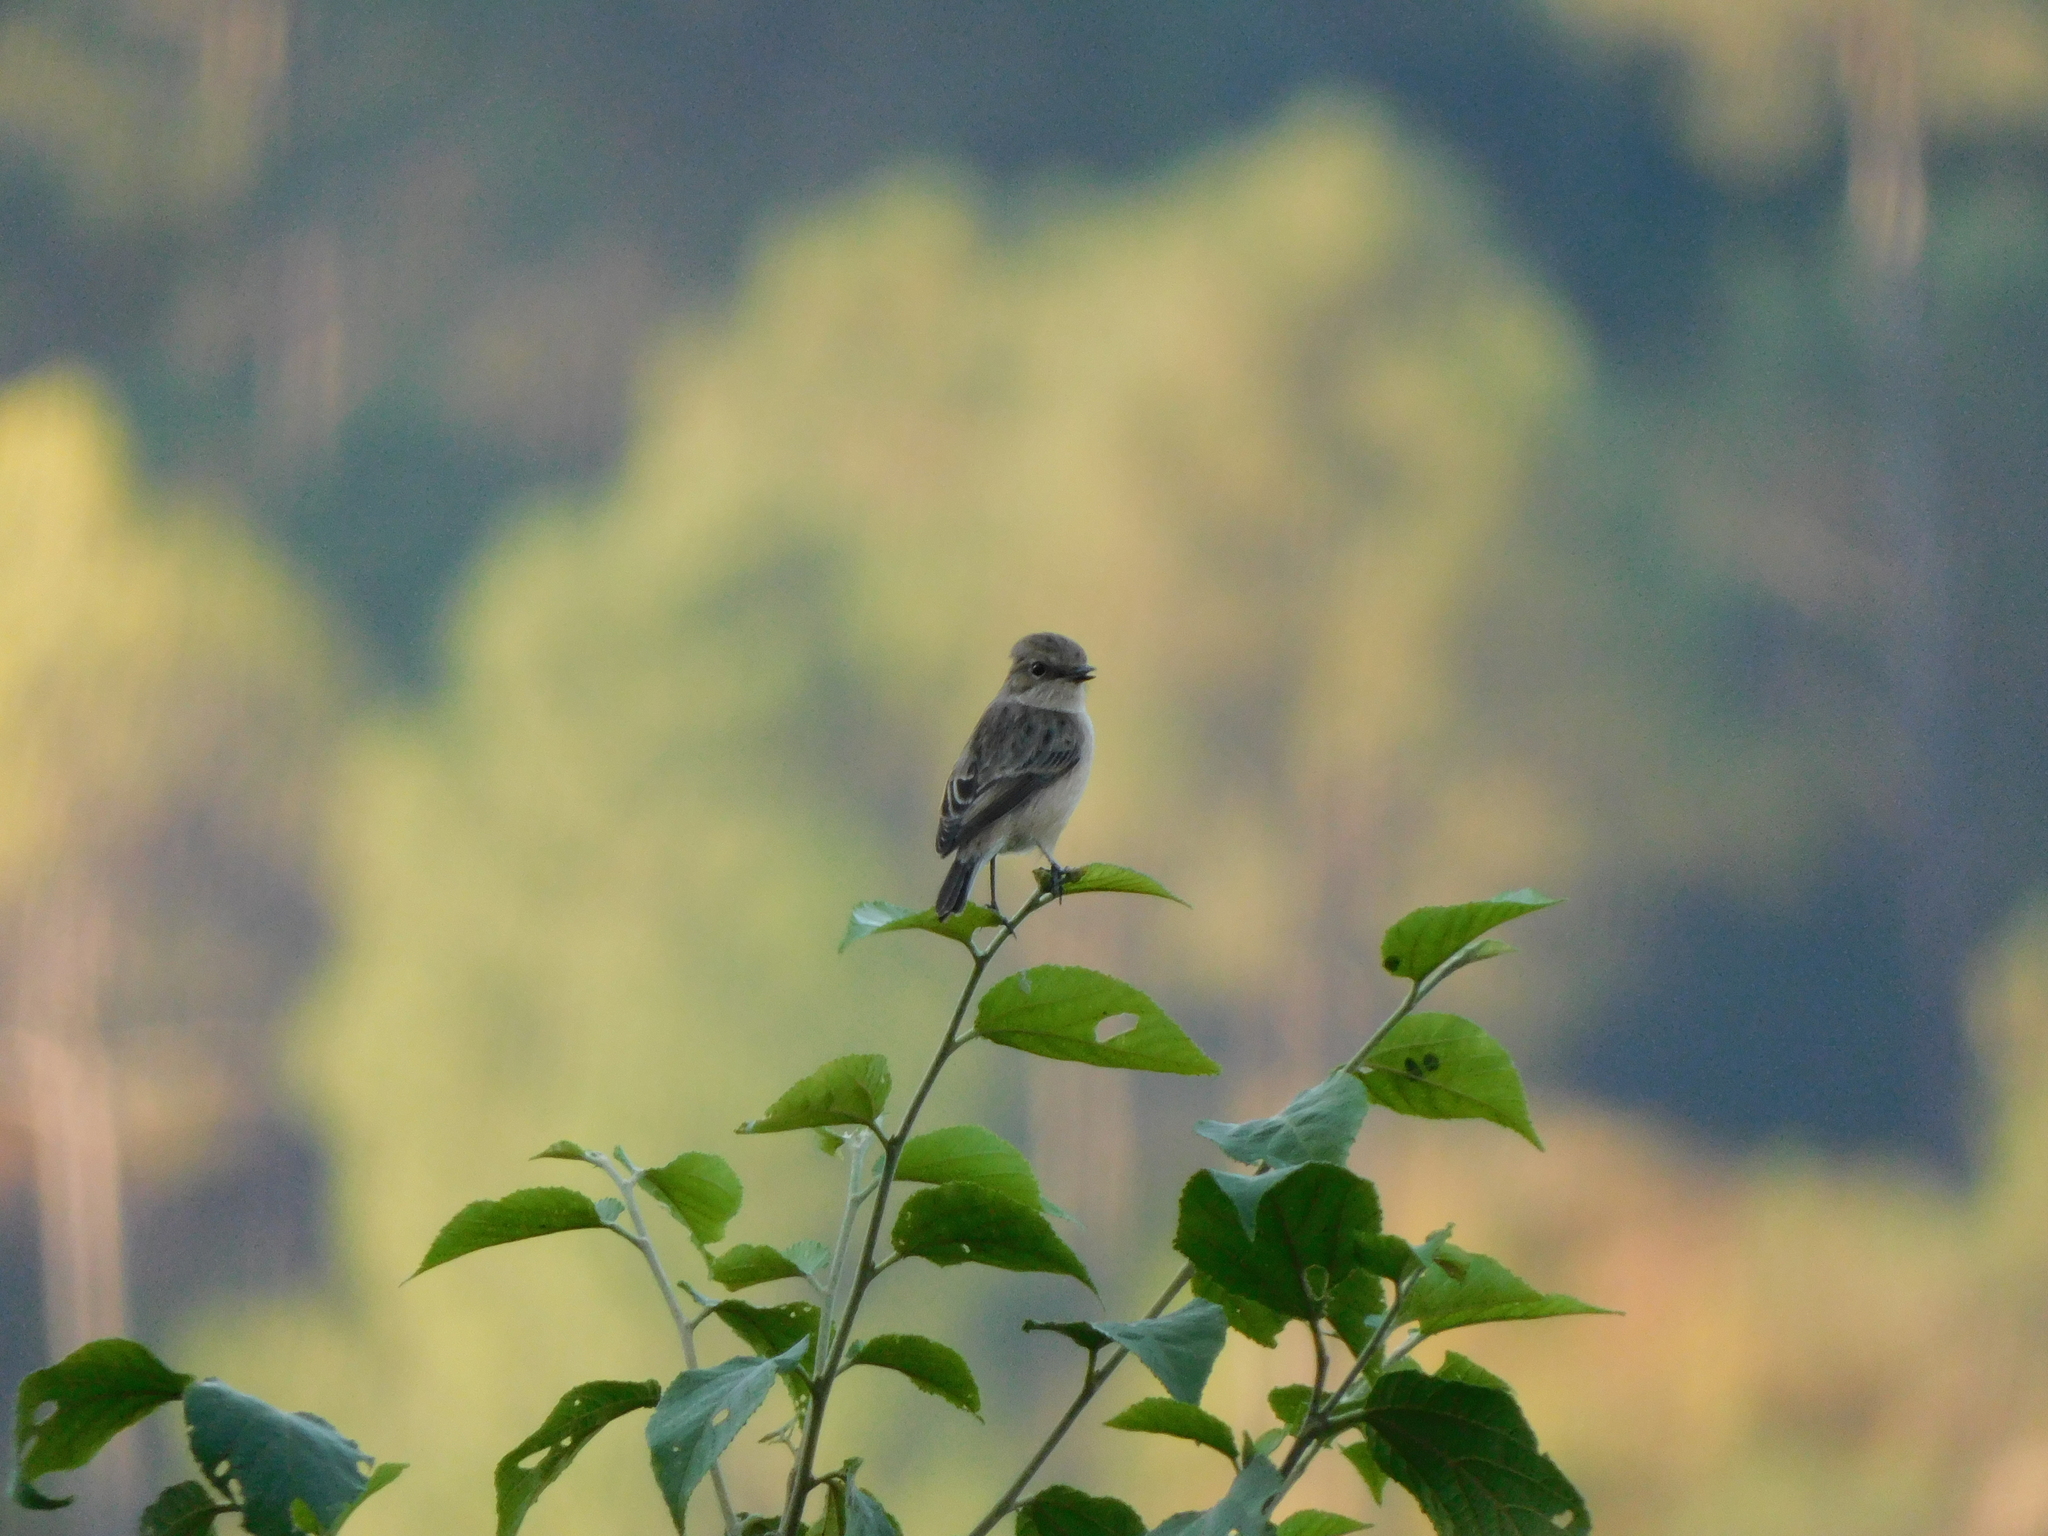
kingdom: Animalia
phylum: Chordata
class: Aves
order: Passeriformes
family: Muscicapidae
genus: Saxicola
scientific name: Saxicola maurus
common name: Siberian stonechat
